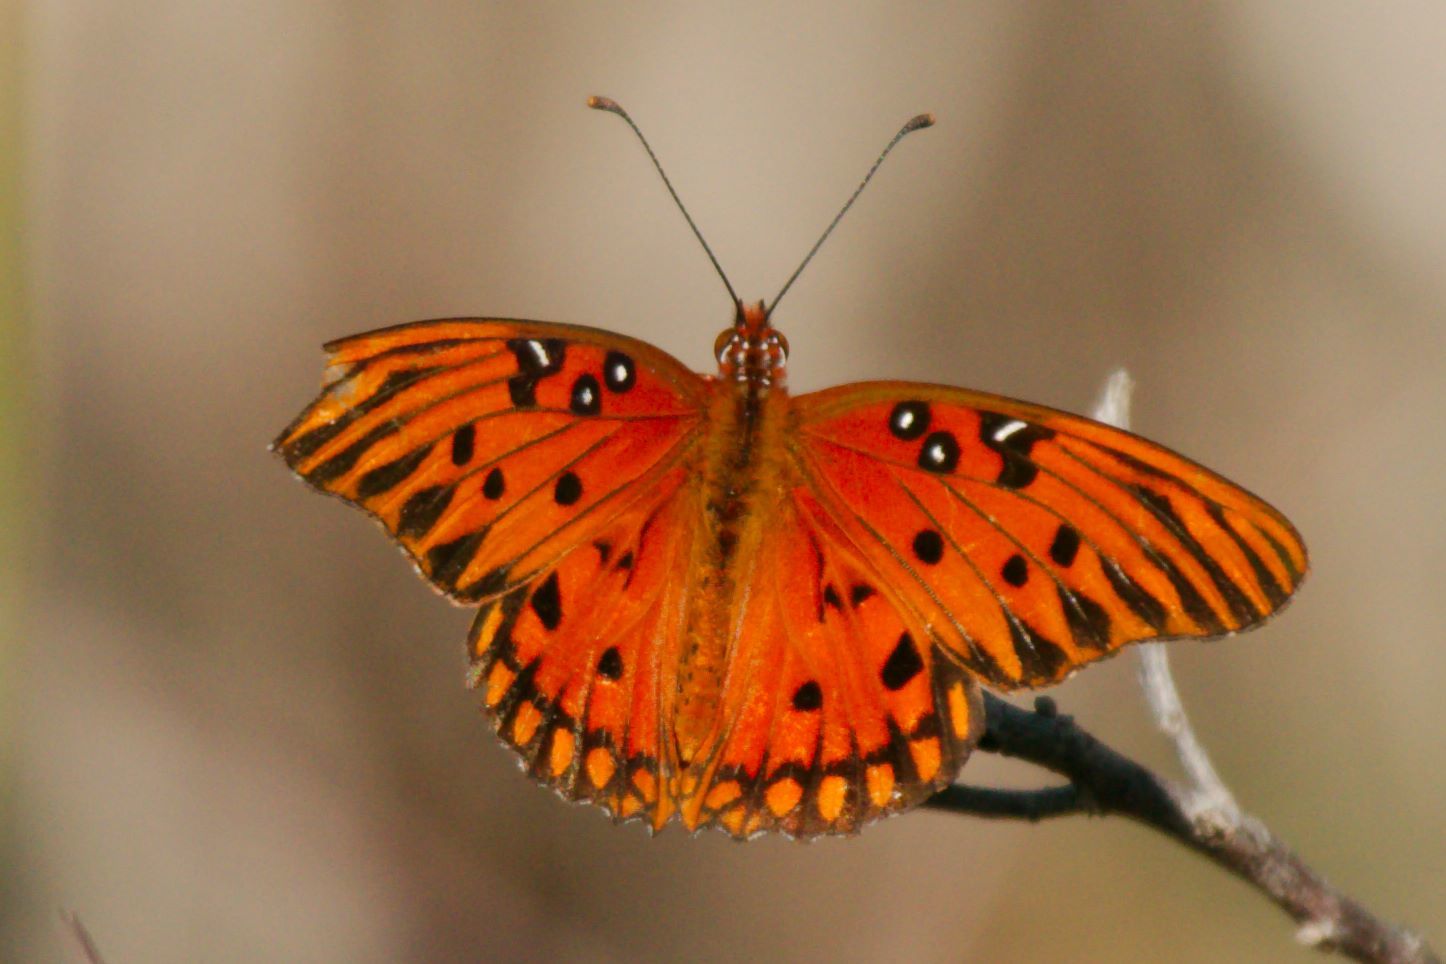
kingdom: Animalia
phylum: Arthropoda
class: Insecta
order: Lepidoptera
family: Nymphalidae
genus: Dione
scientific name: Dione vanillae
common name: Gulf fritillary
